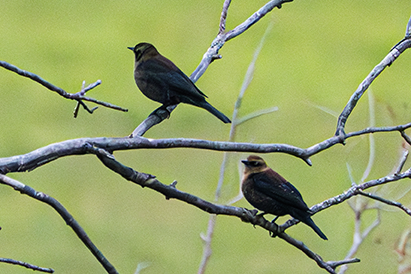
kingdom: Animalia
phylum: Chordata
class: Aves
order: Passeriformes
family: Icteridae
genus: Euphagus
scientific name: Euphagus carolinus
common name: Rusty blackbird
